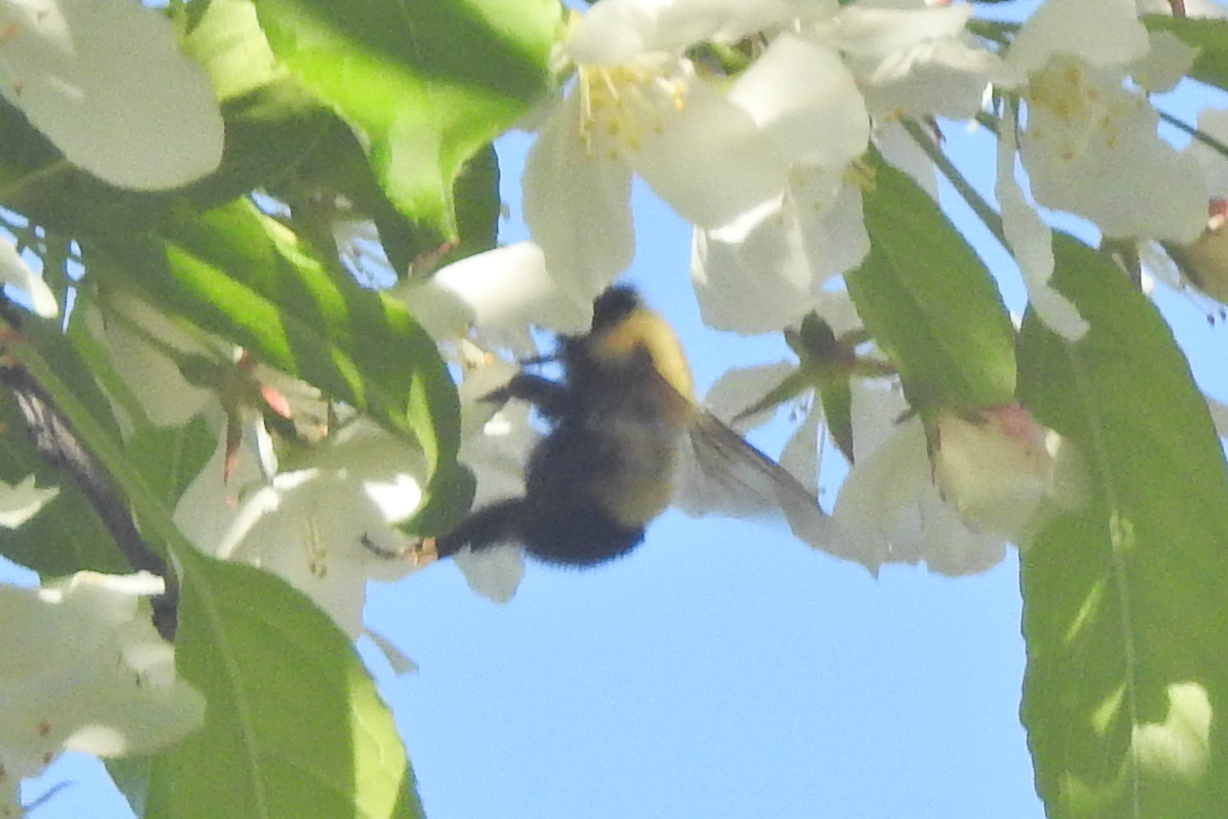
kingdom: Animalia
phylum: Arthropoda
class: Insecta
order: Hymenoptera
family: Apidae
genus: Bombus
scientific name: Bombus perplexus
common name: Confusing bumble bee
